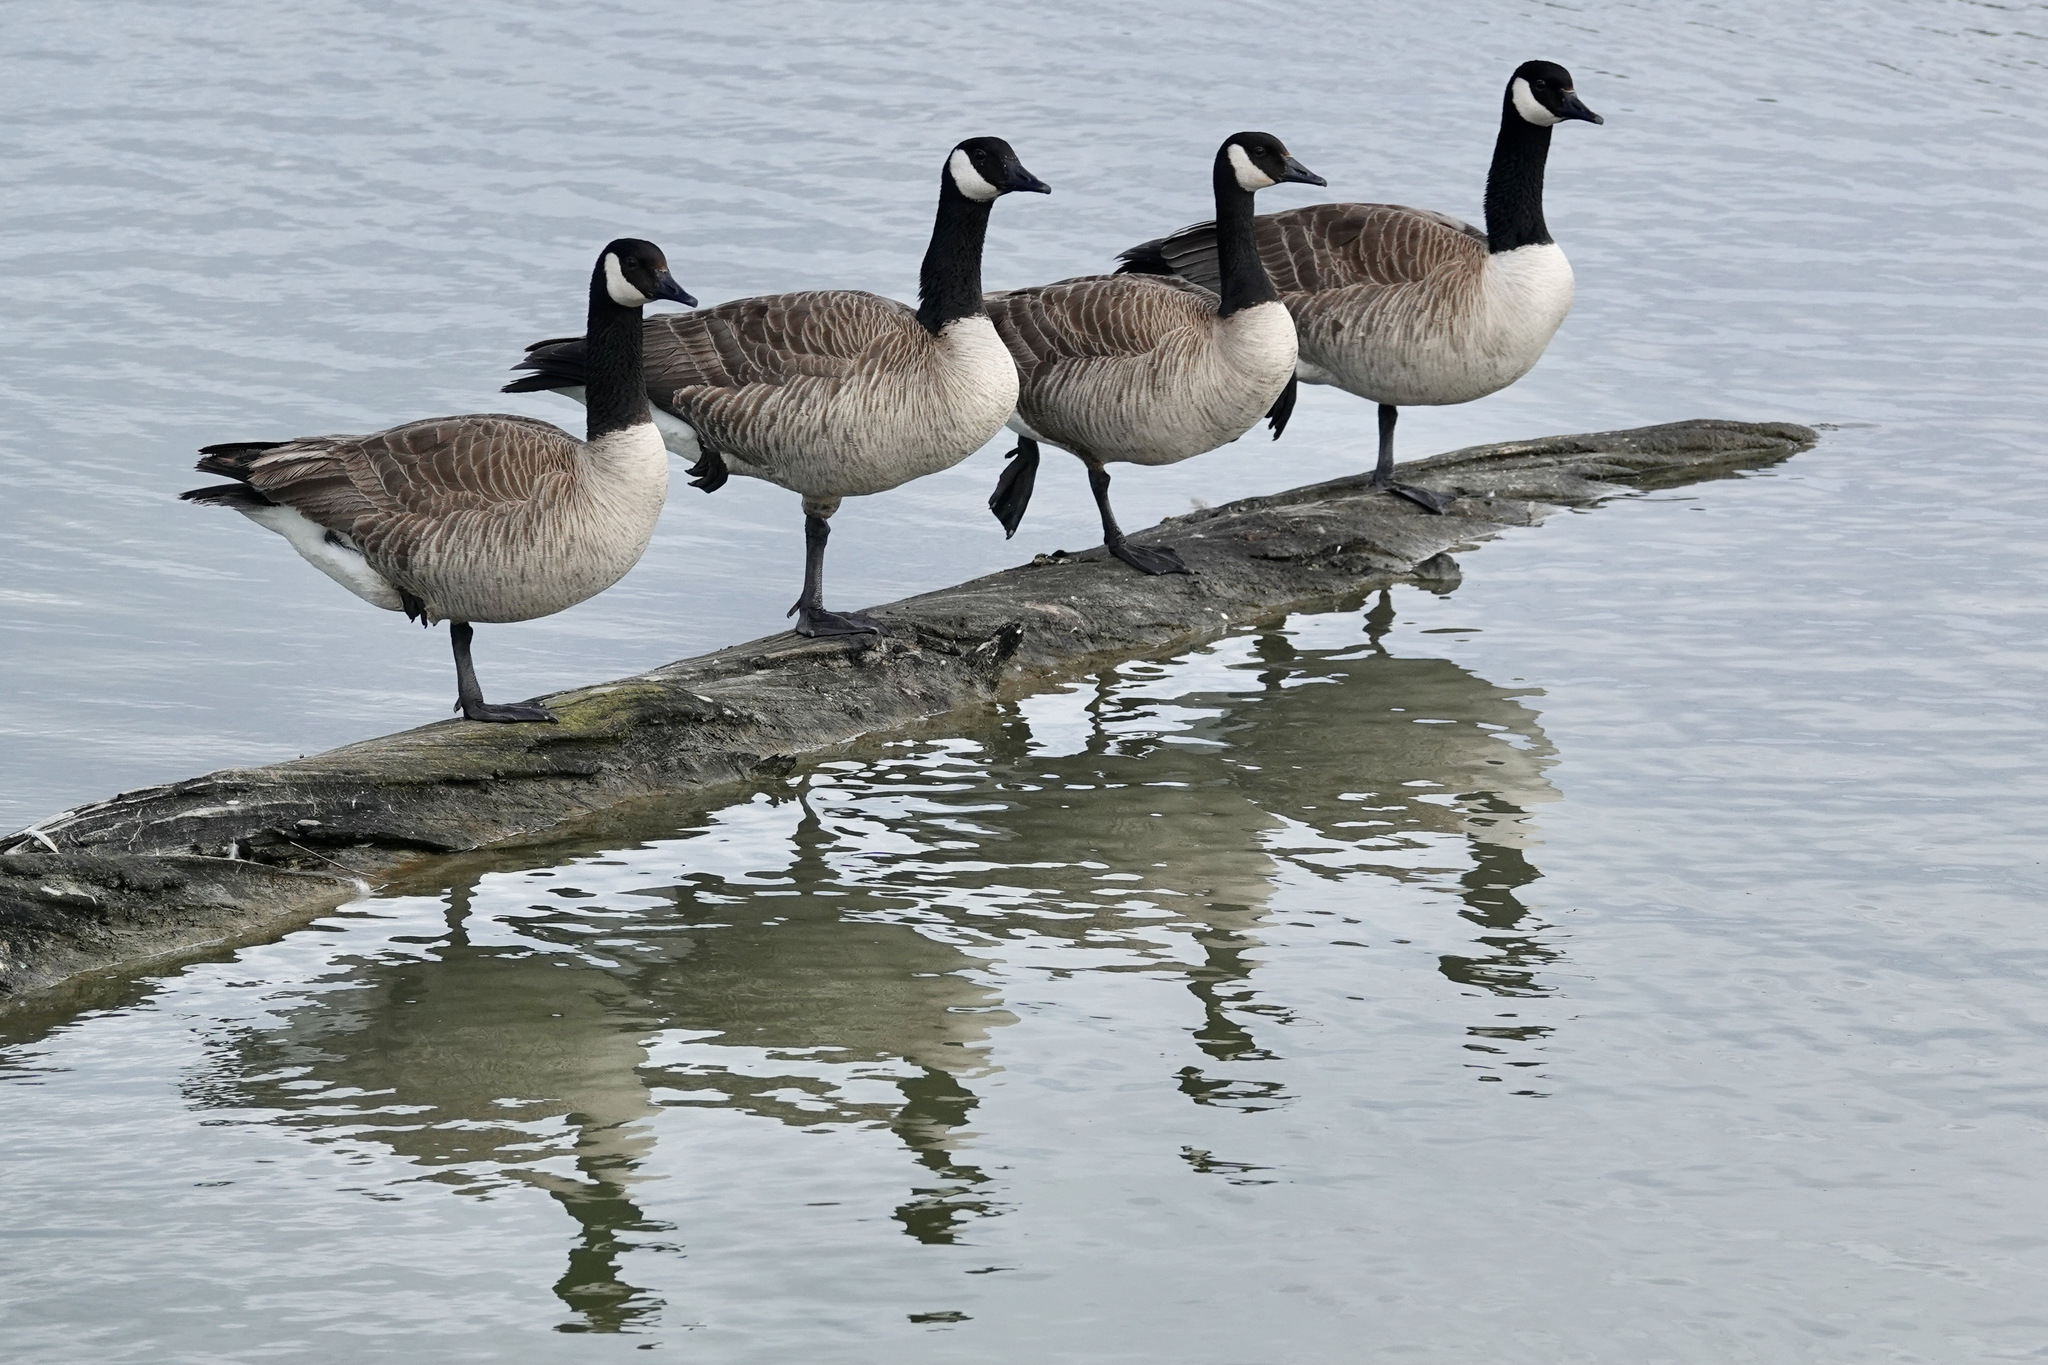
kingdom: Animalia
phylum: Chordata
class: Aves
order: Anseriformes
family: Anatidae
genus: Branta
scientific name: Branta canadensis
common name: Canada goose
